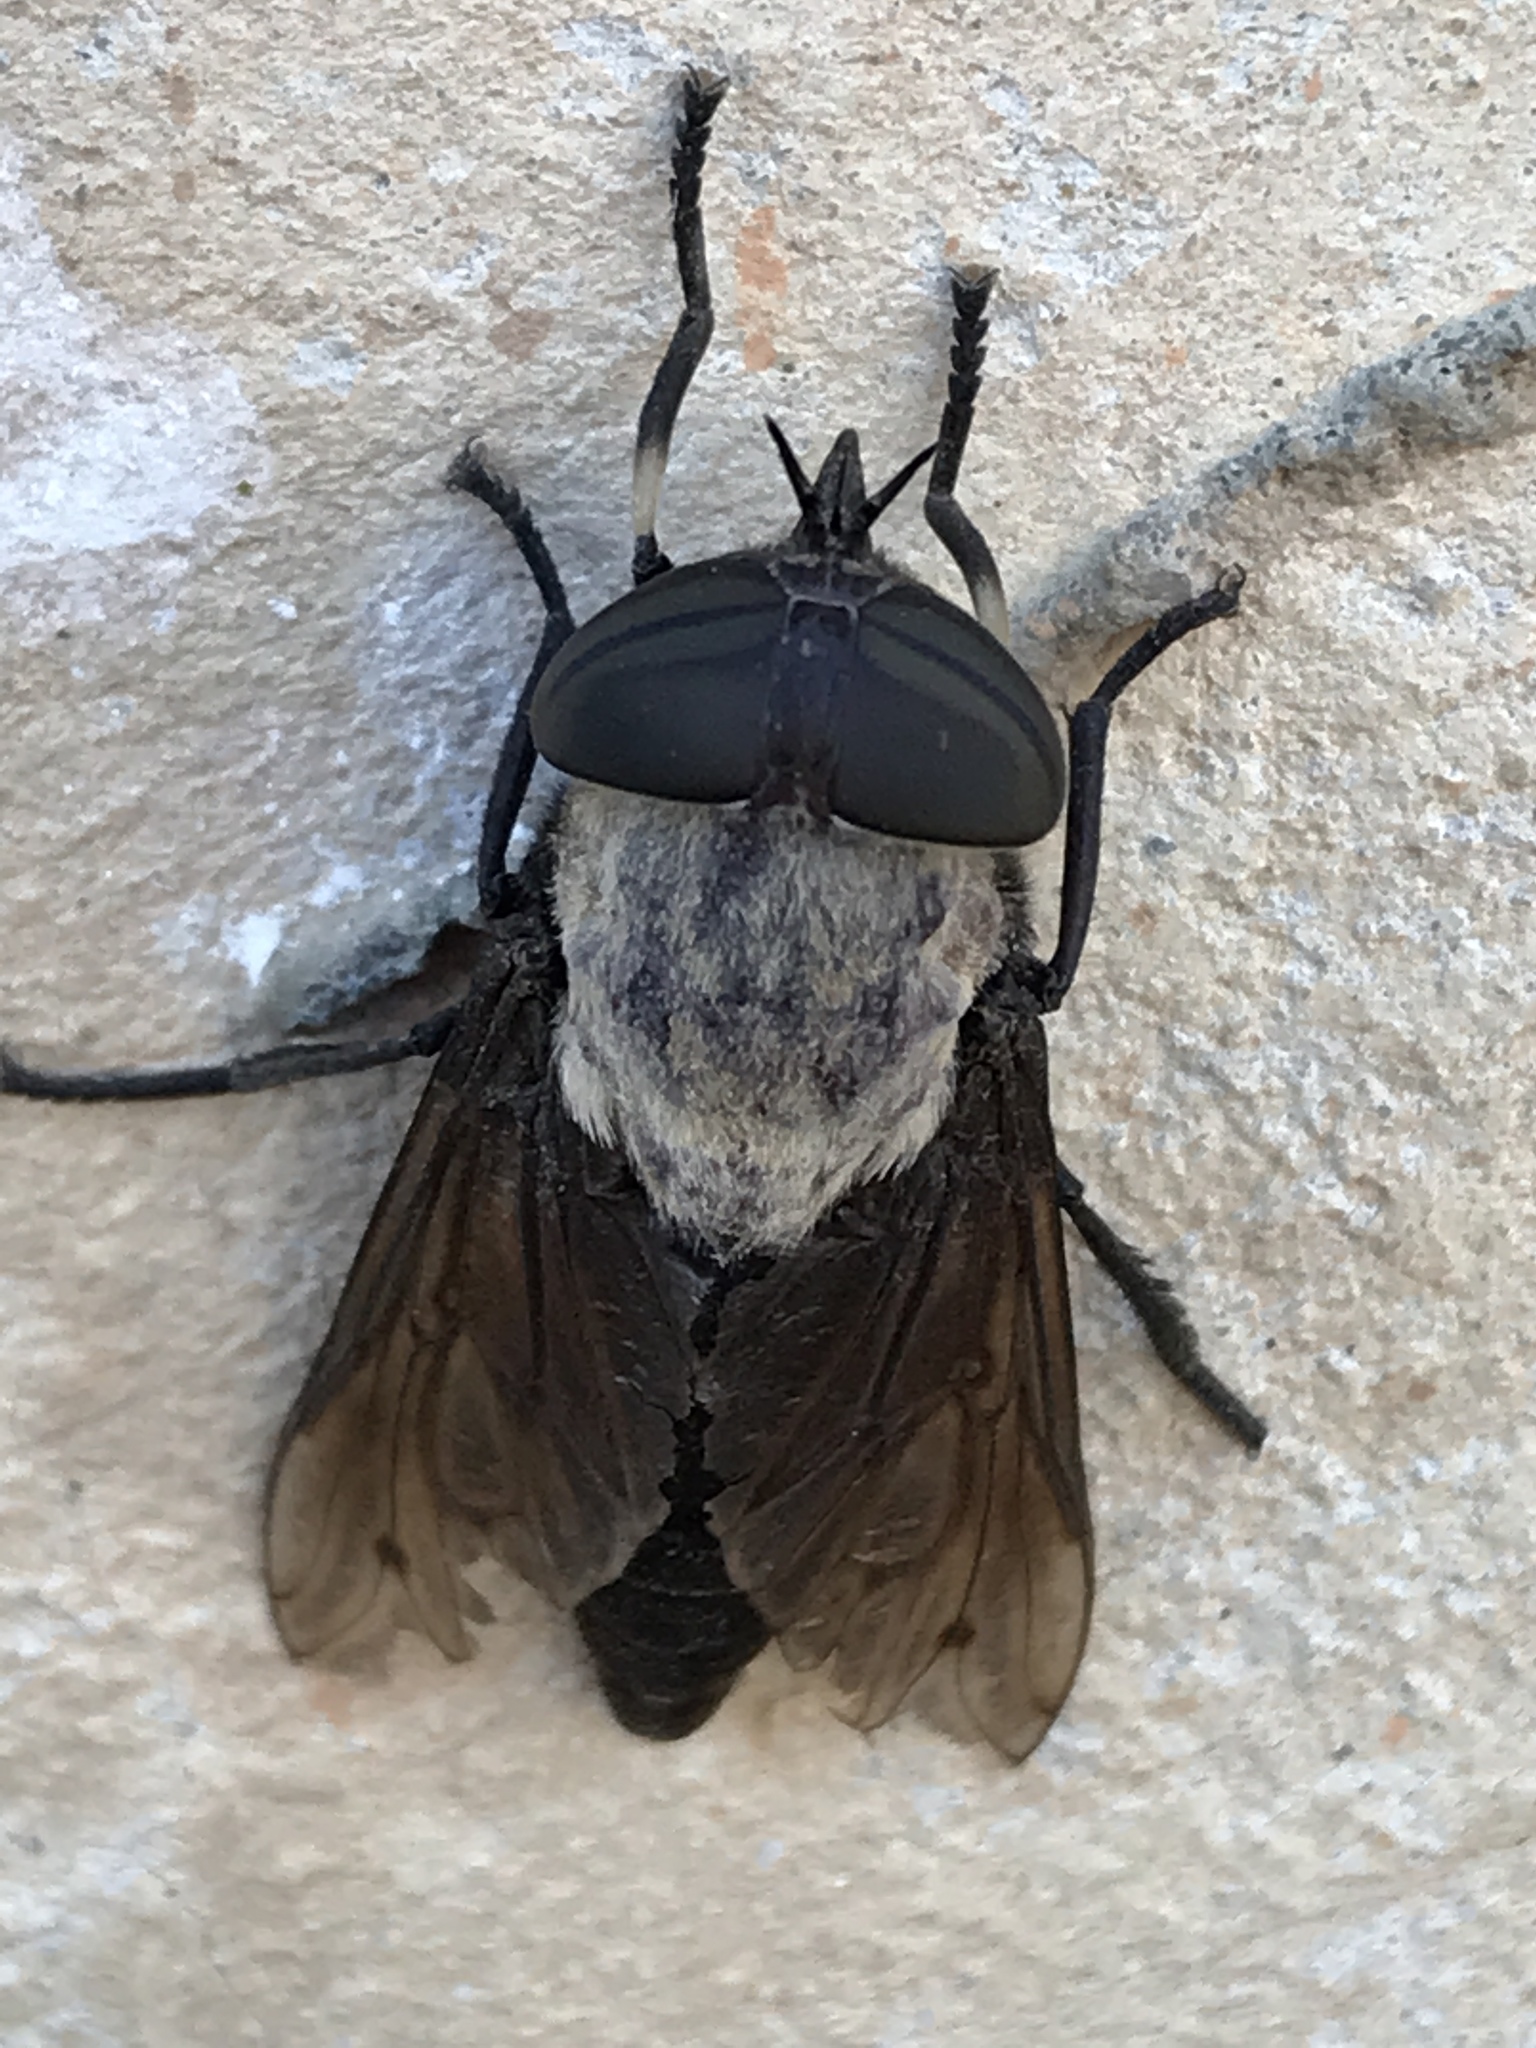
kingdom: Animalia
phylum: Arthropoda
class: Insecta
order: Diptera
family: Tabanidae
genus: Tabanus
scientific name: Tabanus punctifer
